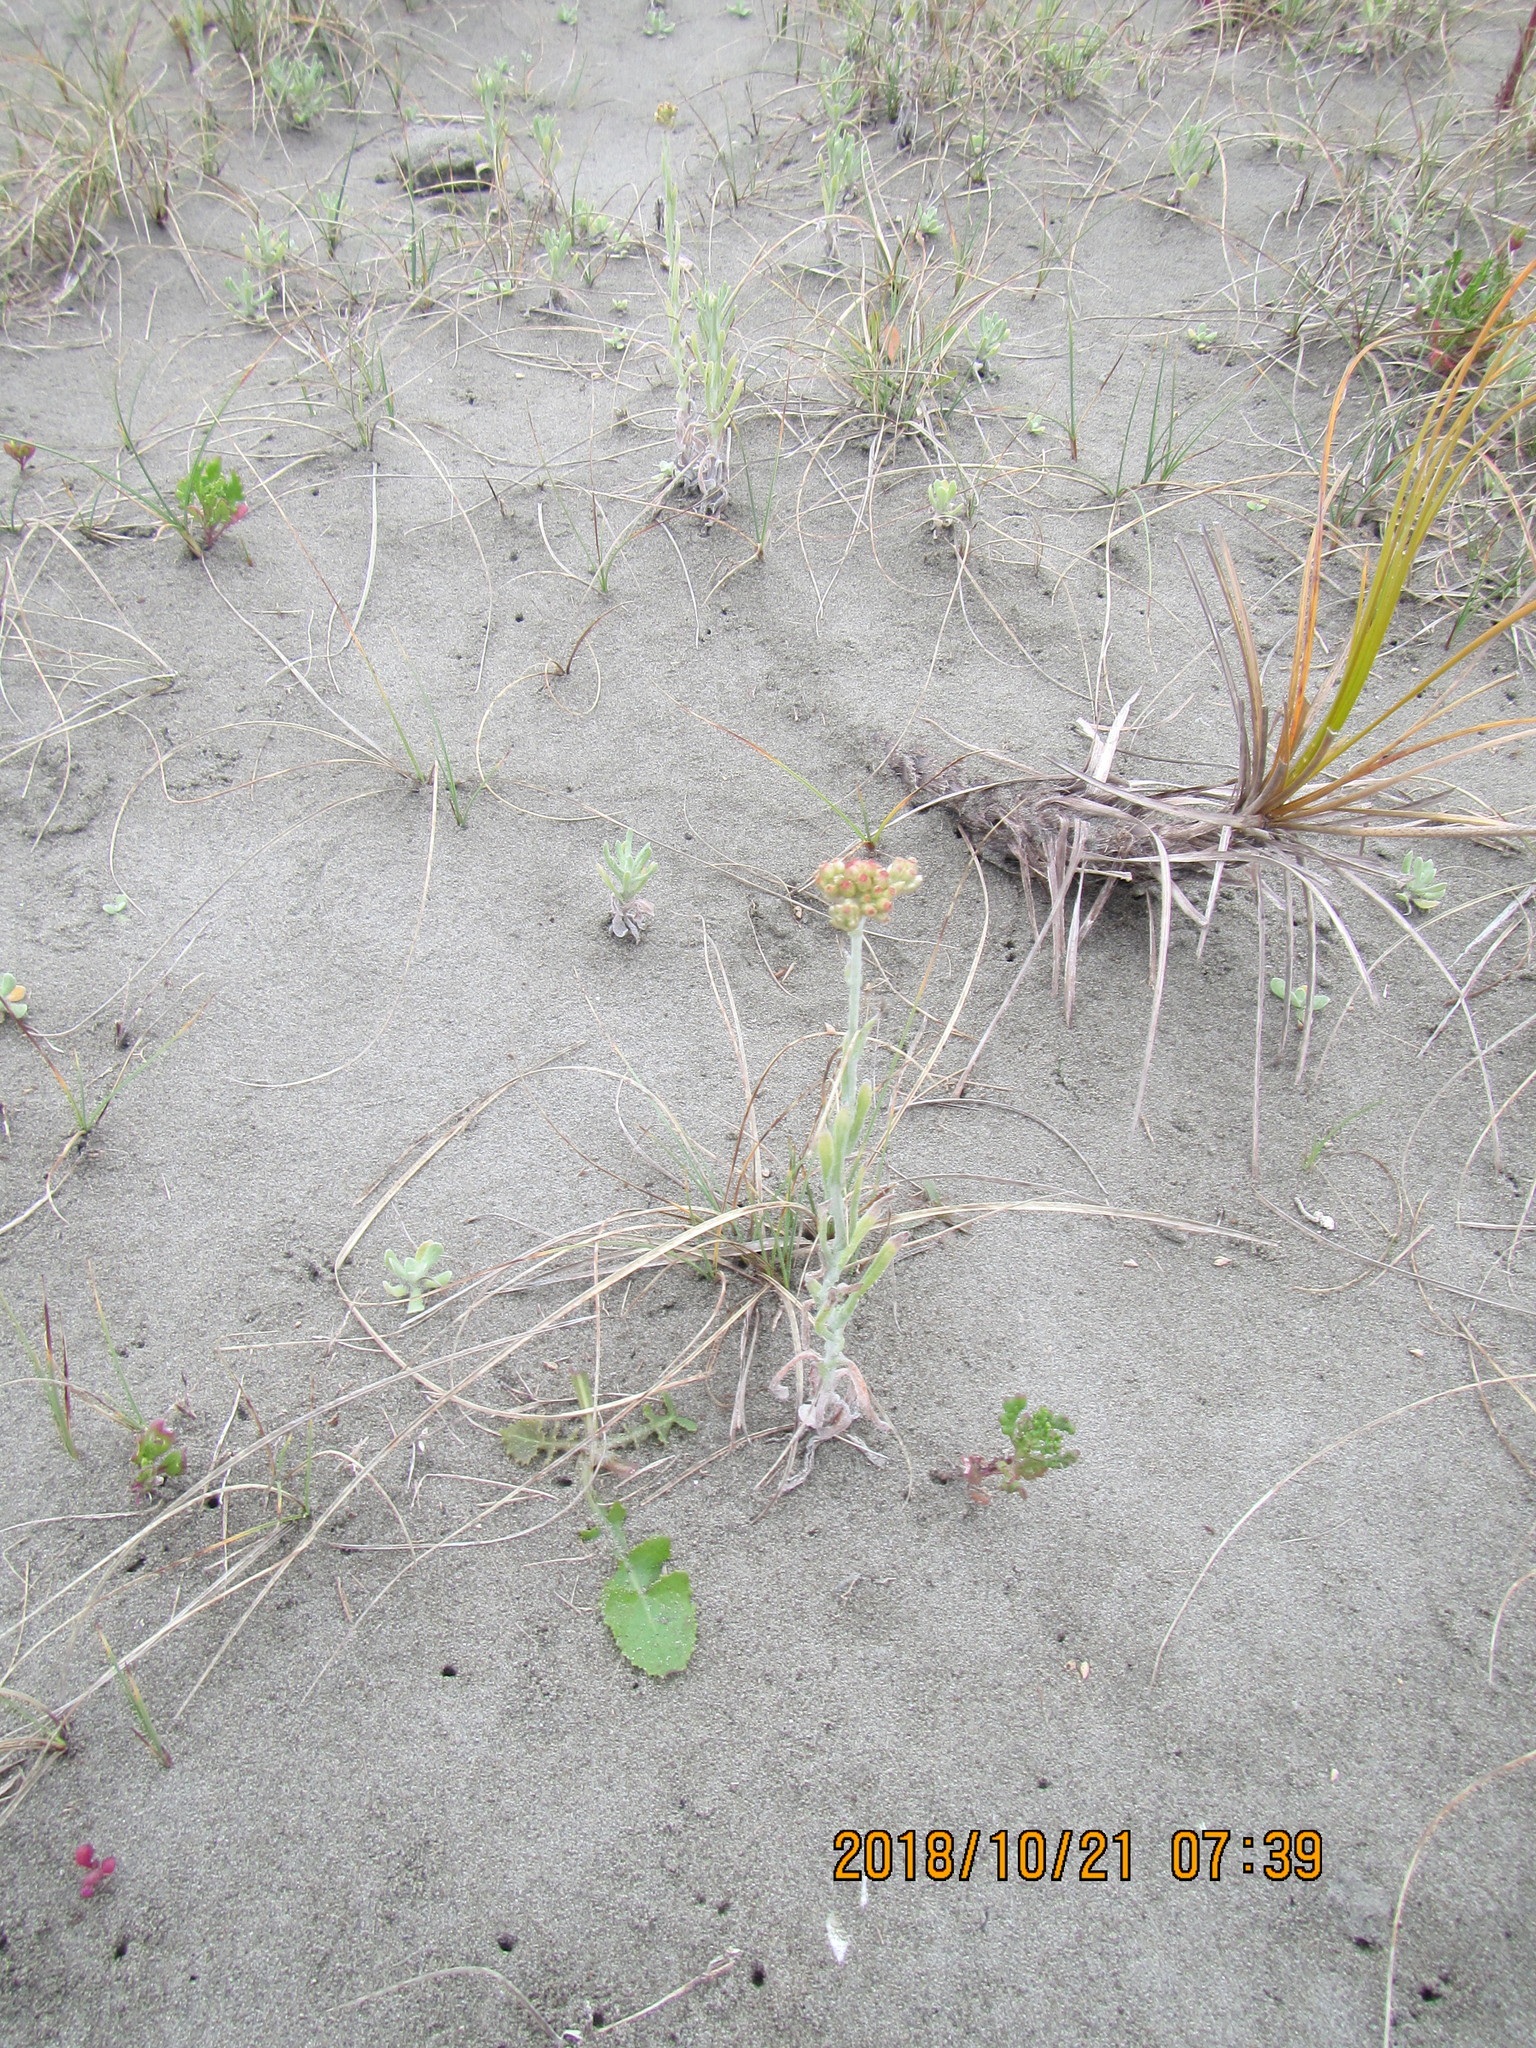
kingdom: Plantae
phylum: Tracheophyta
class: Magnoliopsida
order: Asterales
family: Asteraceae
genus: Helichrysum
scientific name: Helichrysum luteoalbum
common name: Daisy
